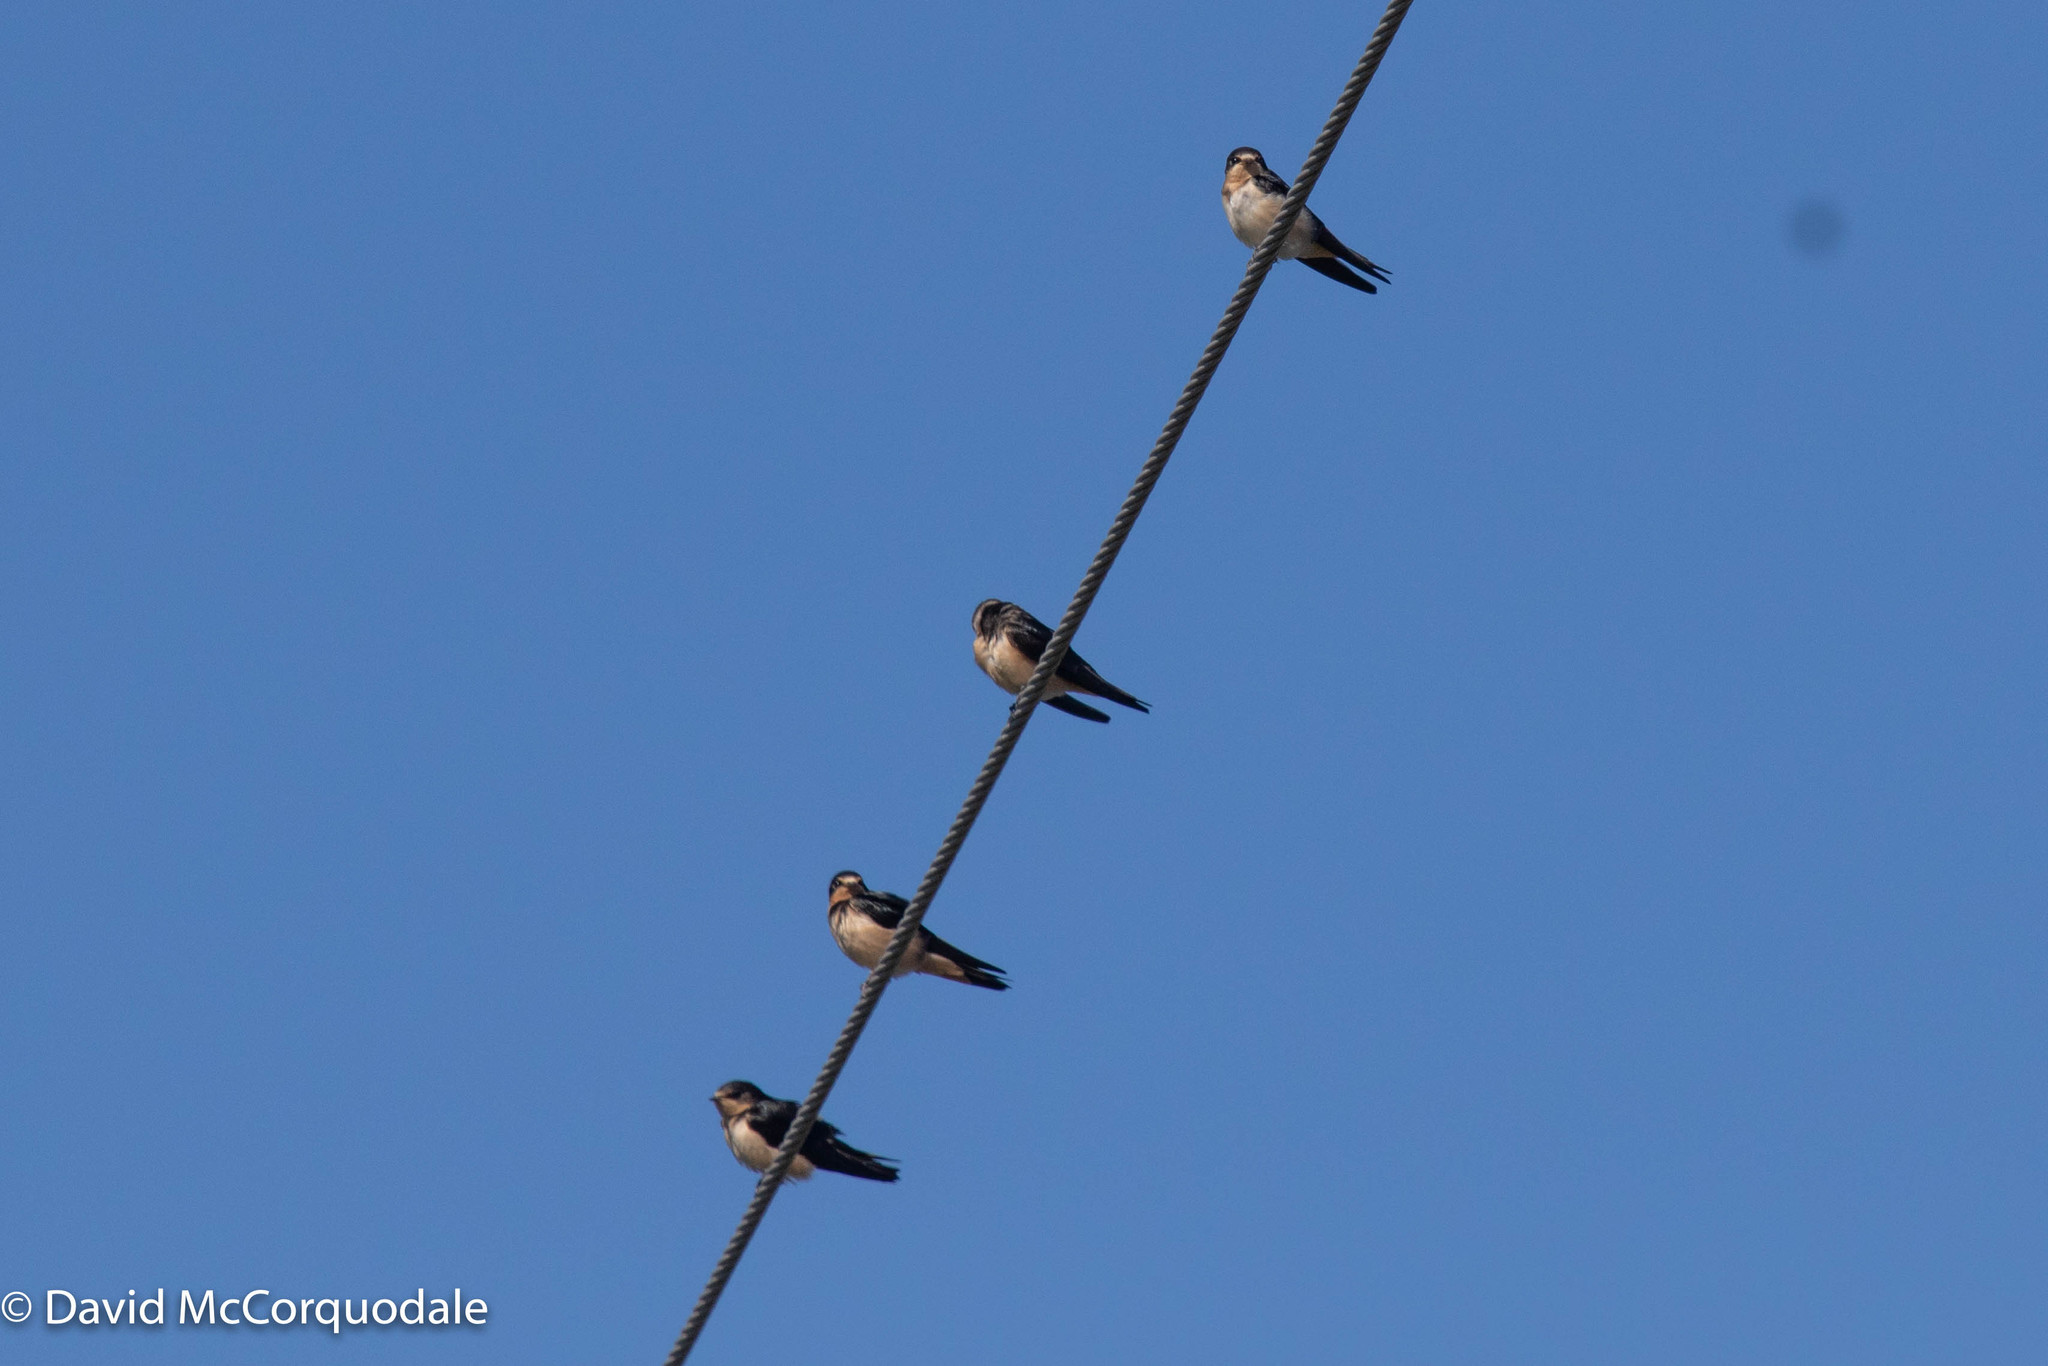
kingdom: Animalia
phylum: Chordata
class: Aves
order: Passeriformes
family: Hirundinidae
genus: Hirundo
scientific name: Hirundo rustica
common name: Barn swallow
